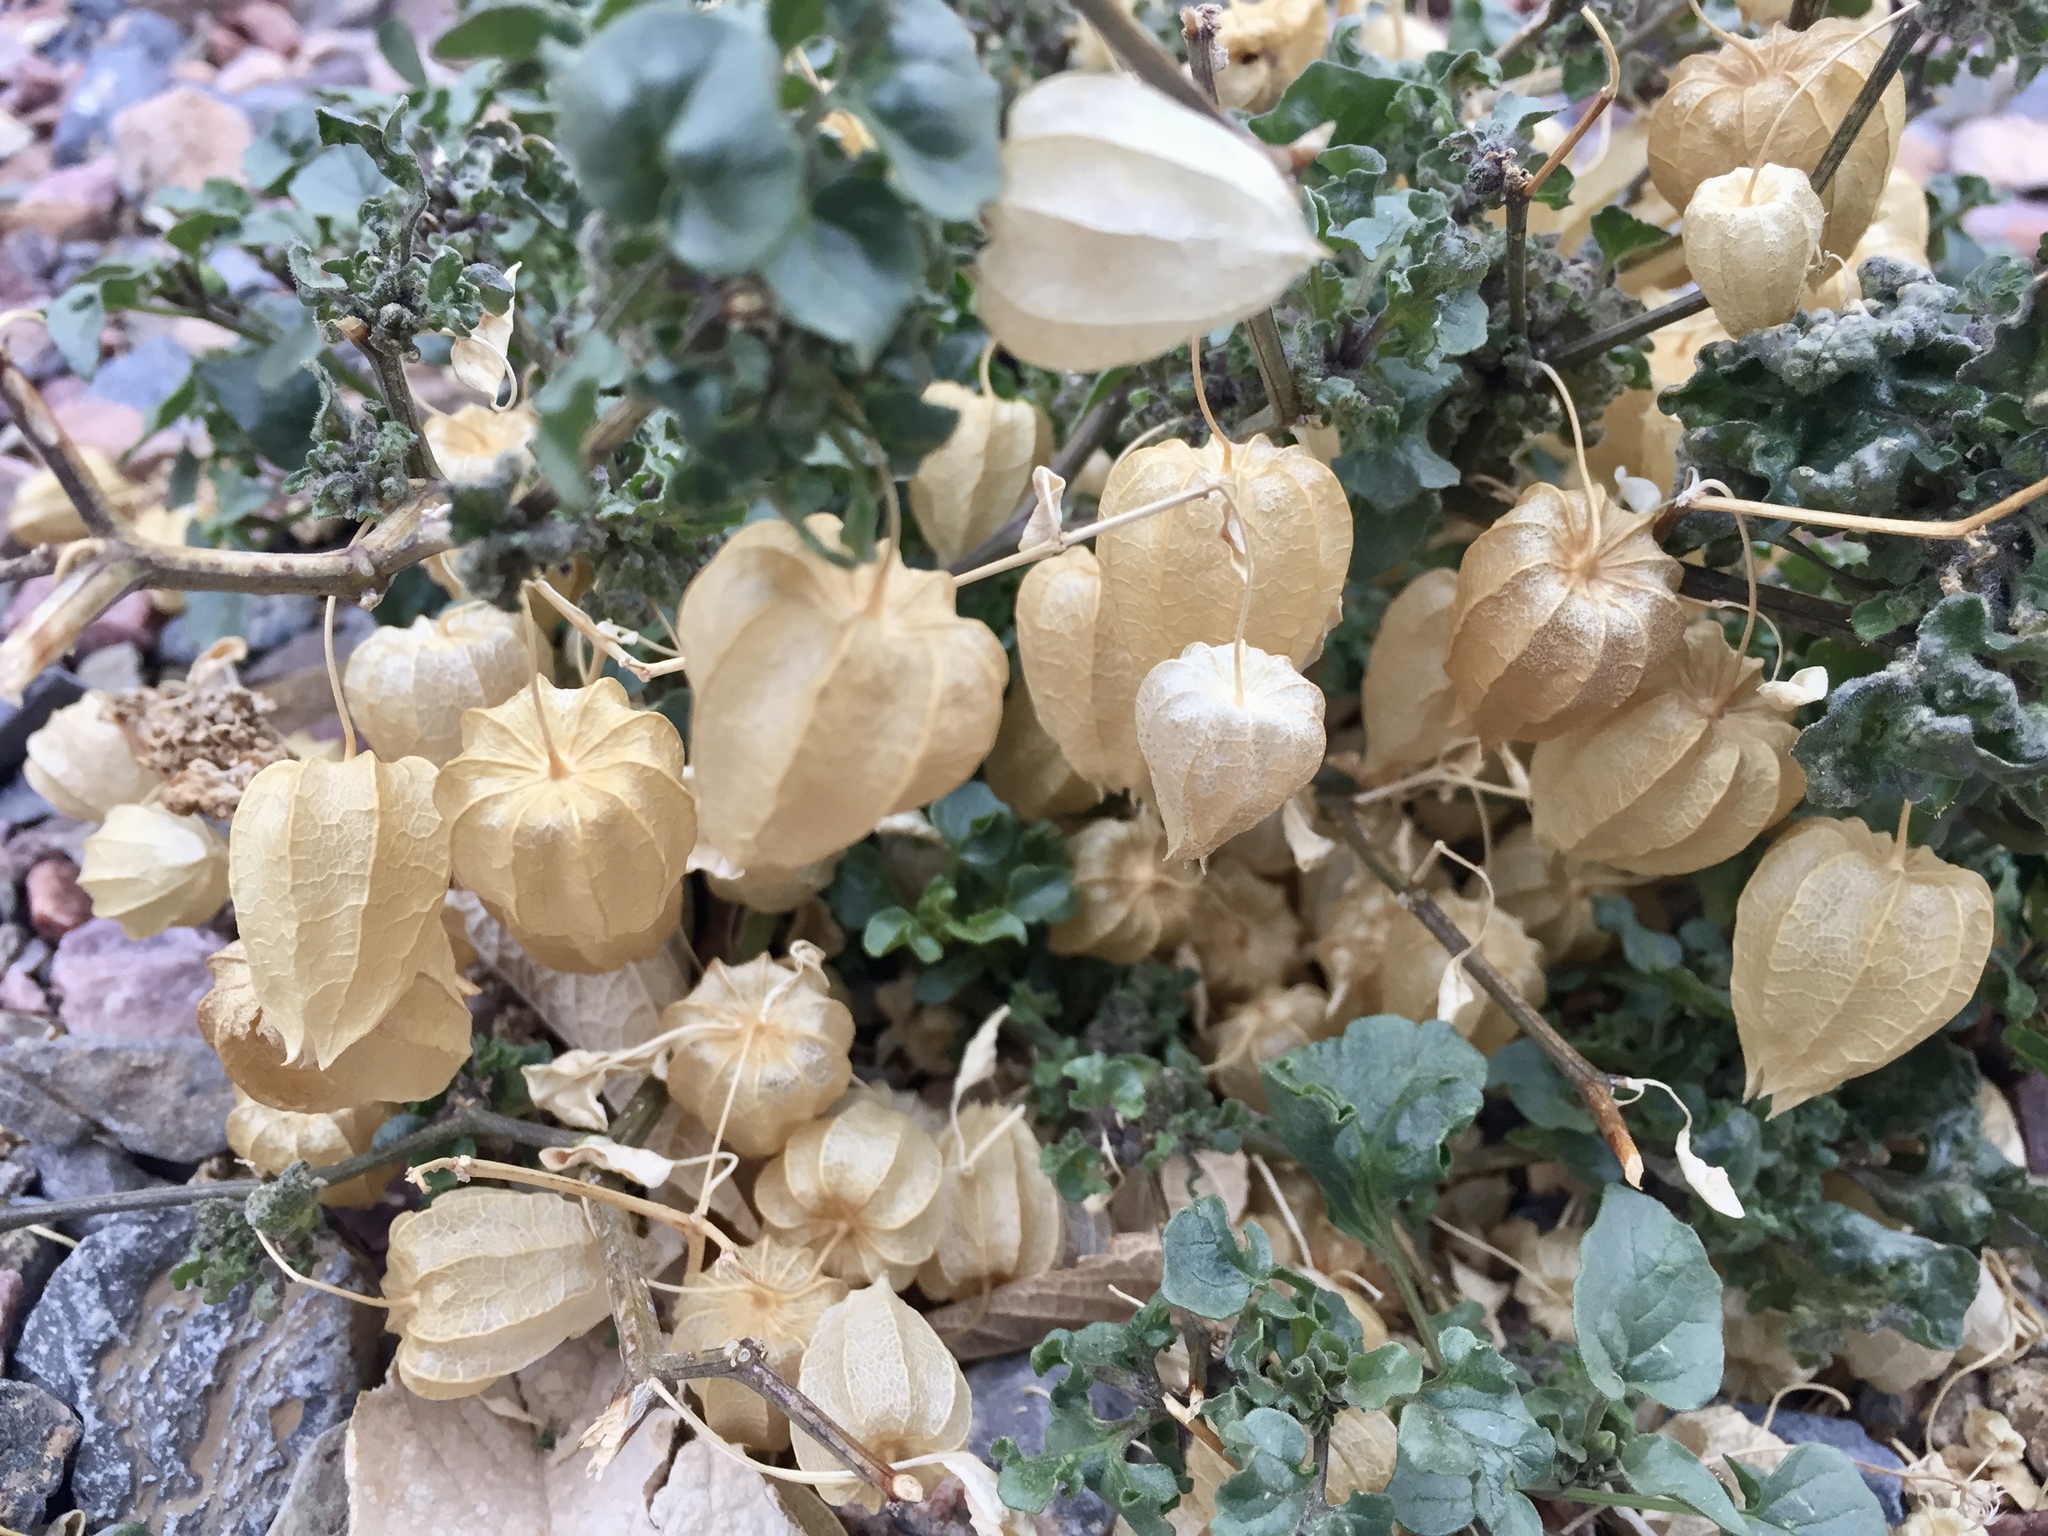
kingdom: Plantae
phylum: Tracheophyta
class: Magnoliopsida
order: Solanales
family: Solanaceae
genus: Physalis
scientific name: Physalis crassifolia
